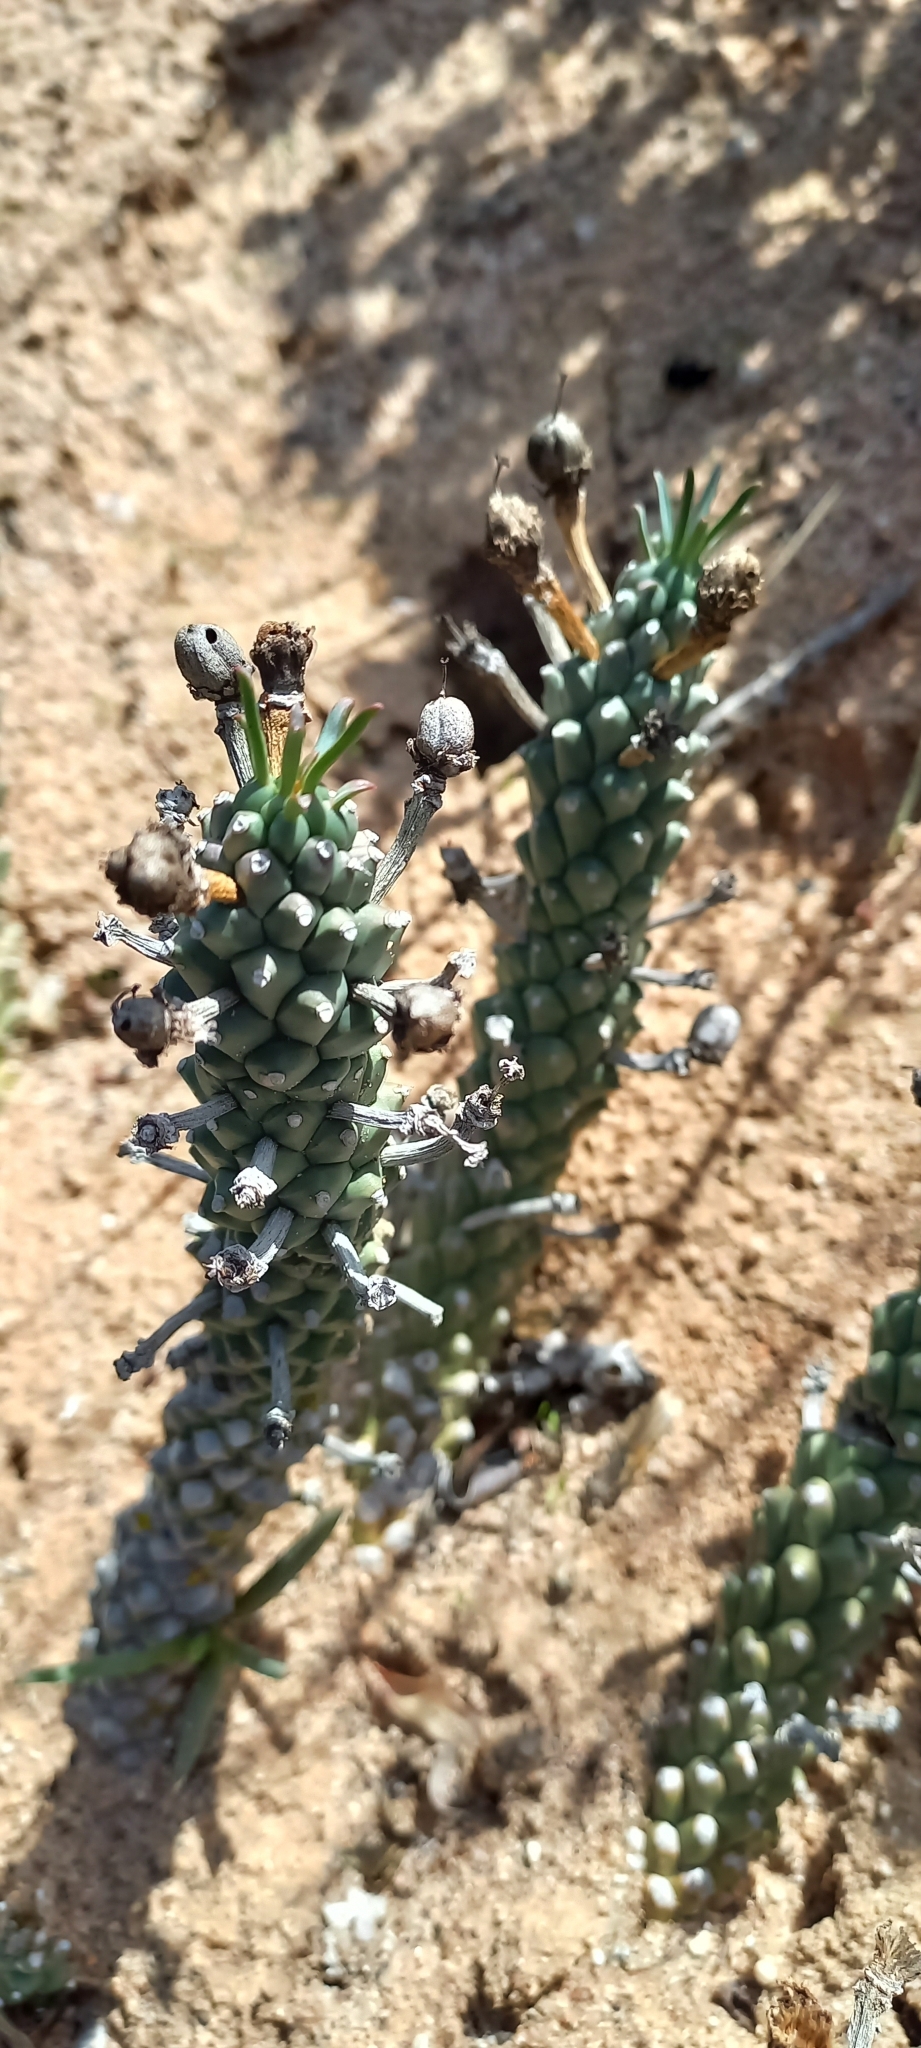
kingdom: Plantae
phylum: Tracheophyta
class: Magnoliopsida
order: Malpighiales
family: Euphorbiaceae
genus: Euphorbia
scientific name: Euphorbia caput-medusae
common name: Medusa's-head
